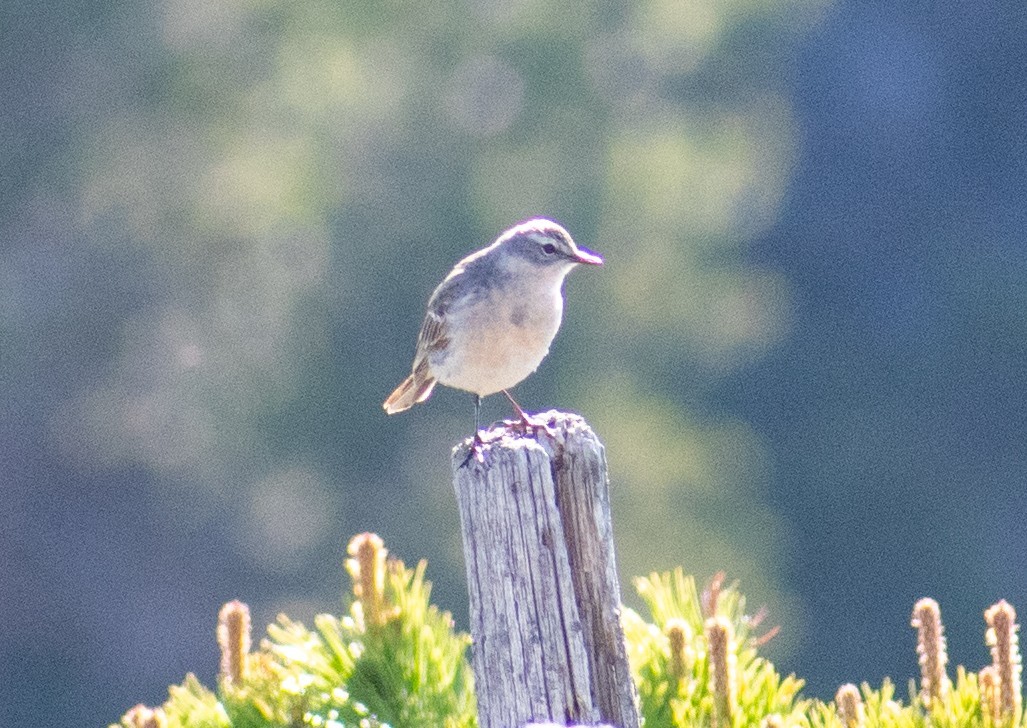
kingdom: Animalia
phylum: Chordata
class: Aves
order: Passeriformes
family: Motacillidae
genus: Anthus
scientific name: Anthus spinoletta
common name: Water pipit
